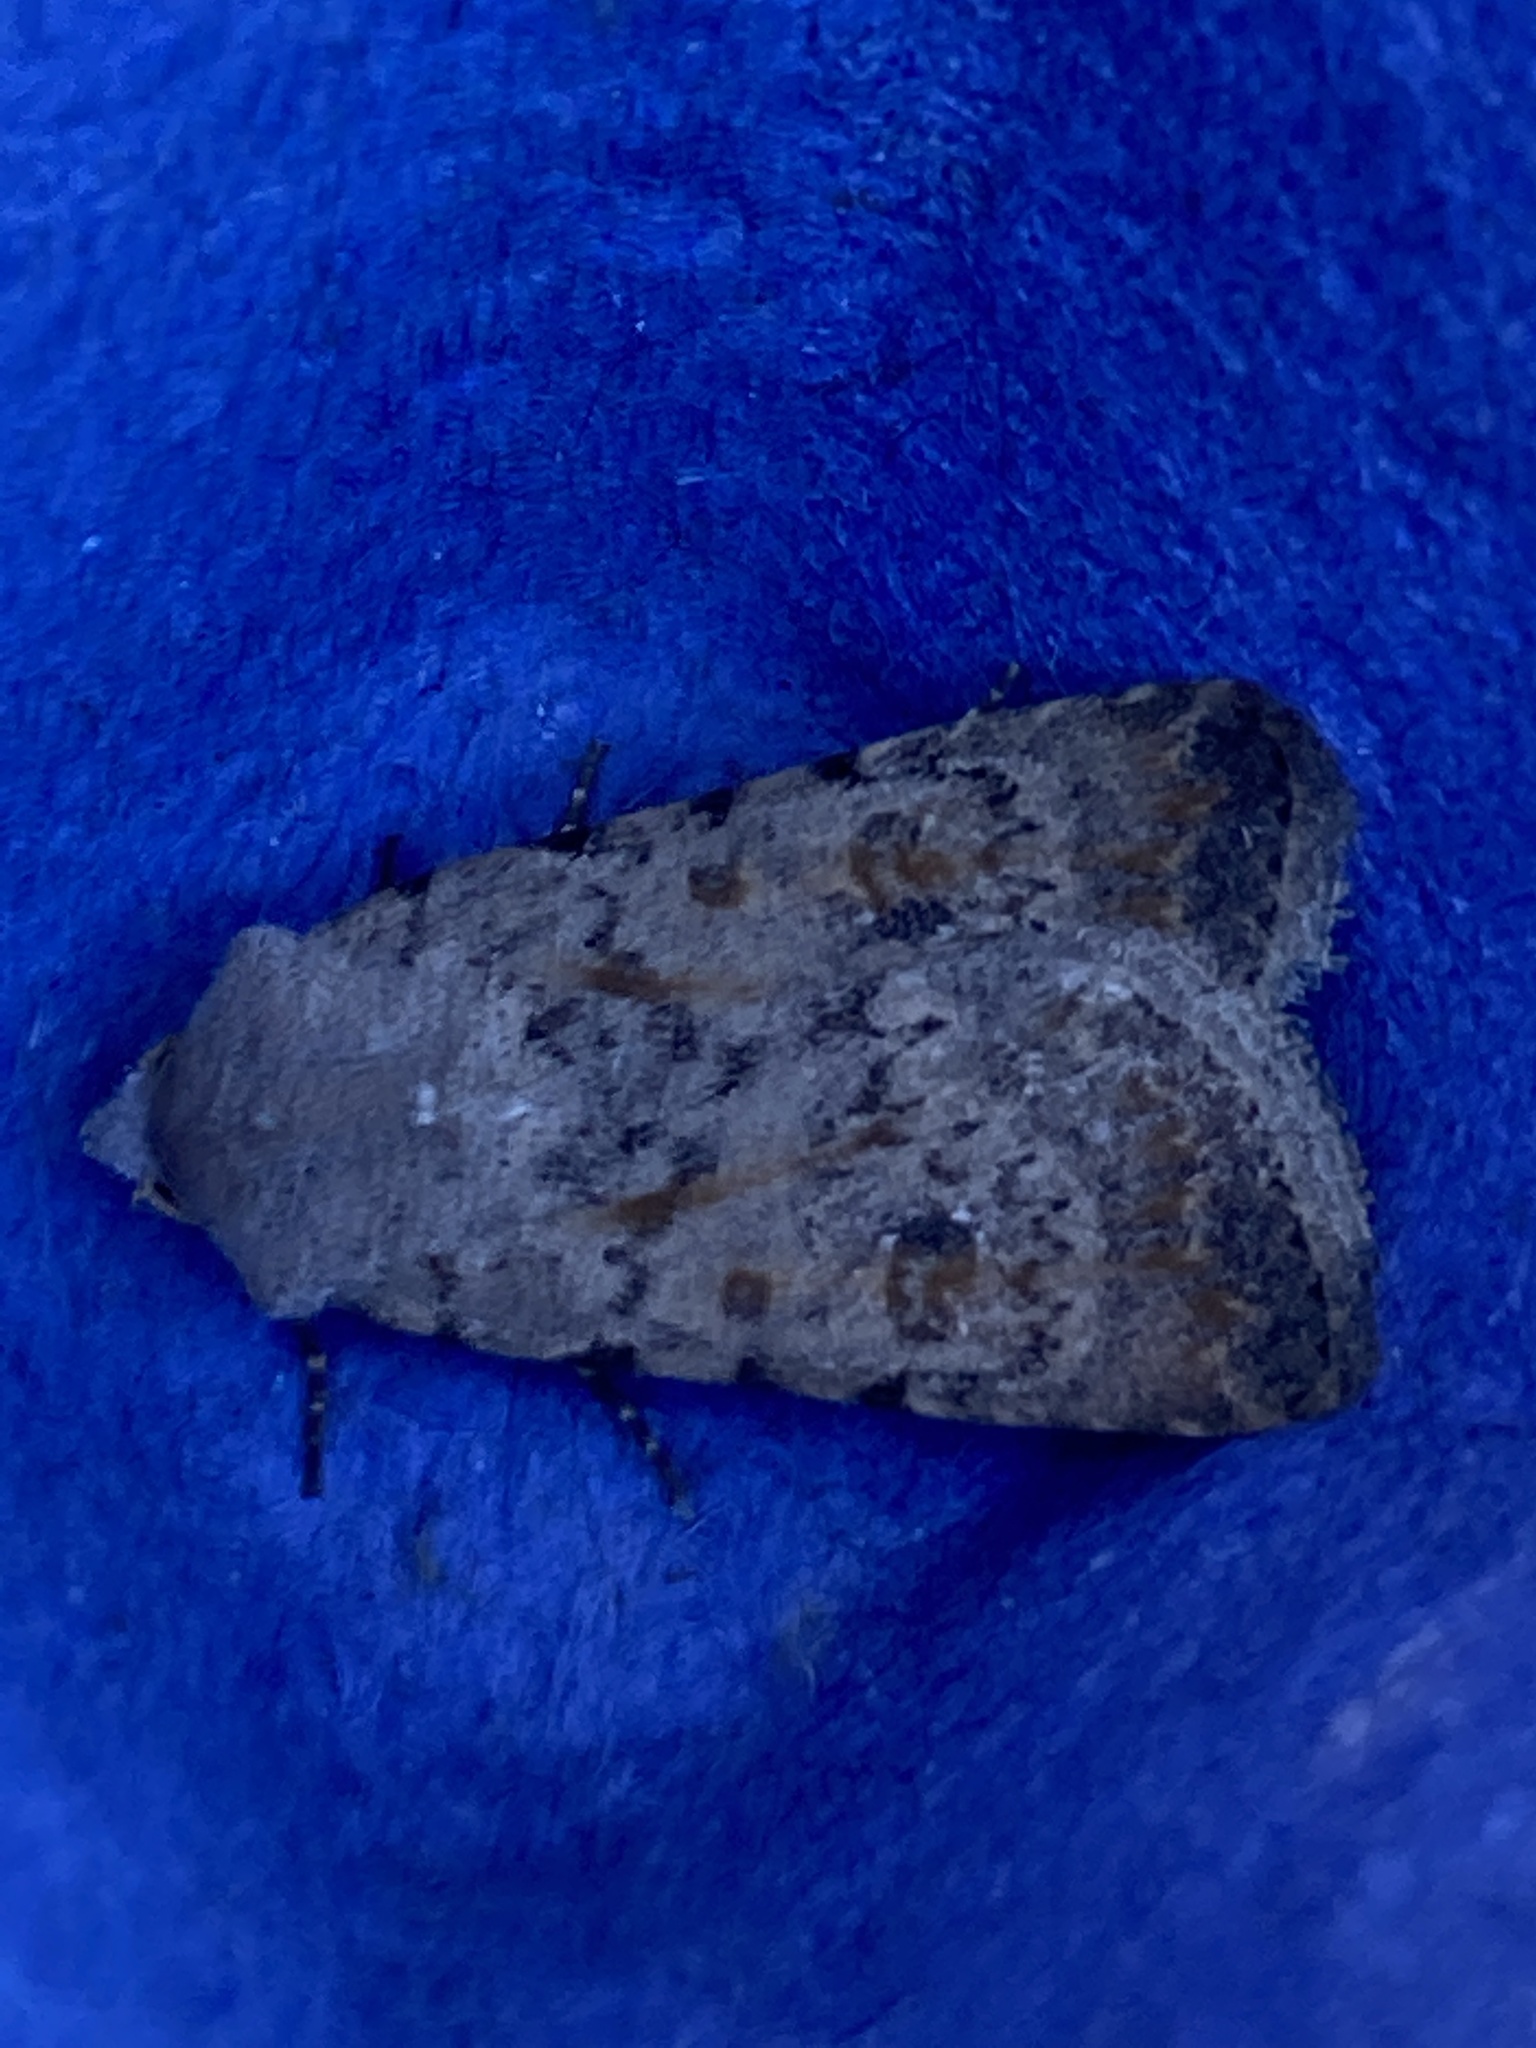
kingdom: Animalia
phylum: Arthropoda
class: Insecta
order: Lepidoptera
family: Noctuidae
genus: Caradrina
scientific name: Caradrina clavipalpis
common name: Pale mottled willow
